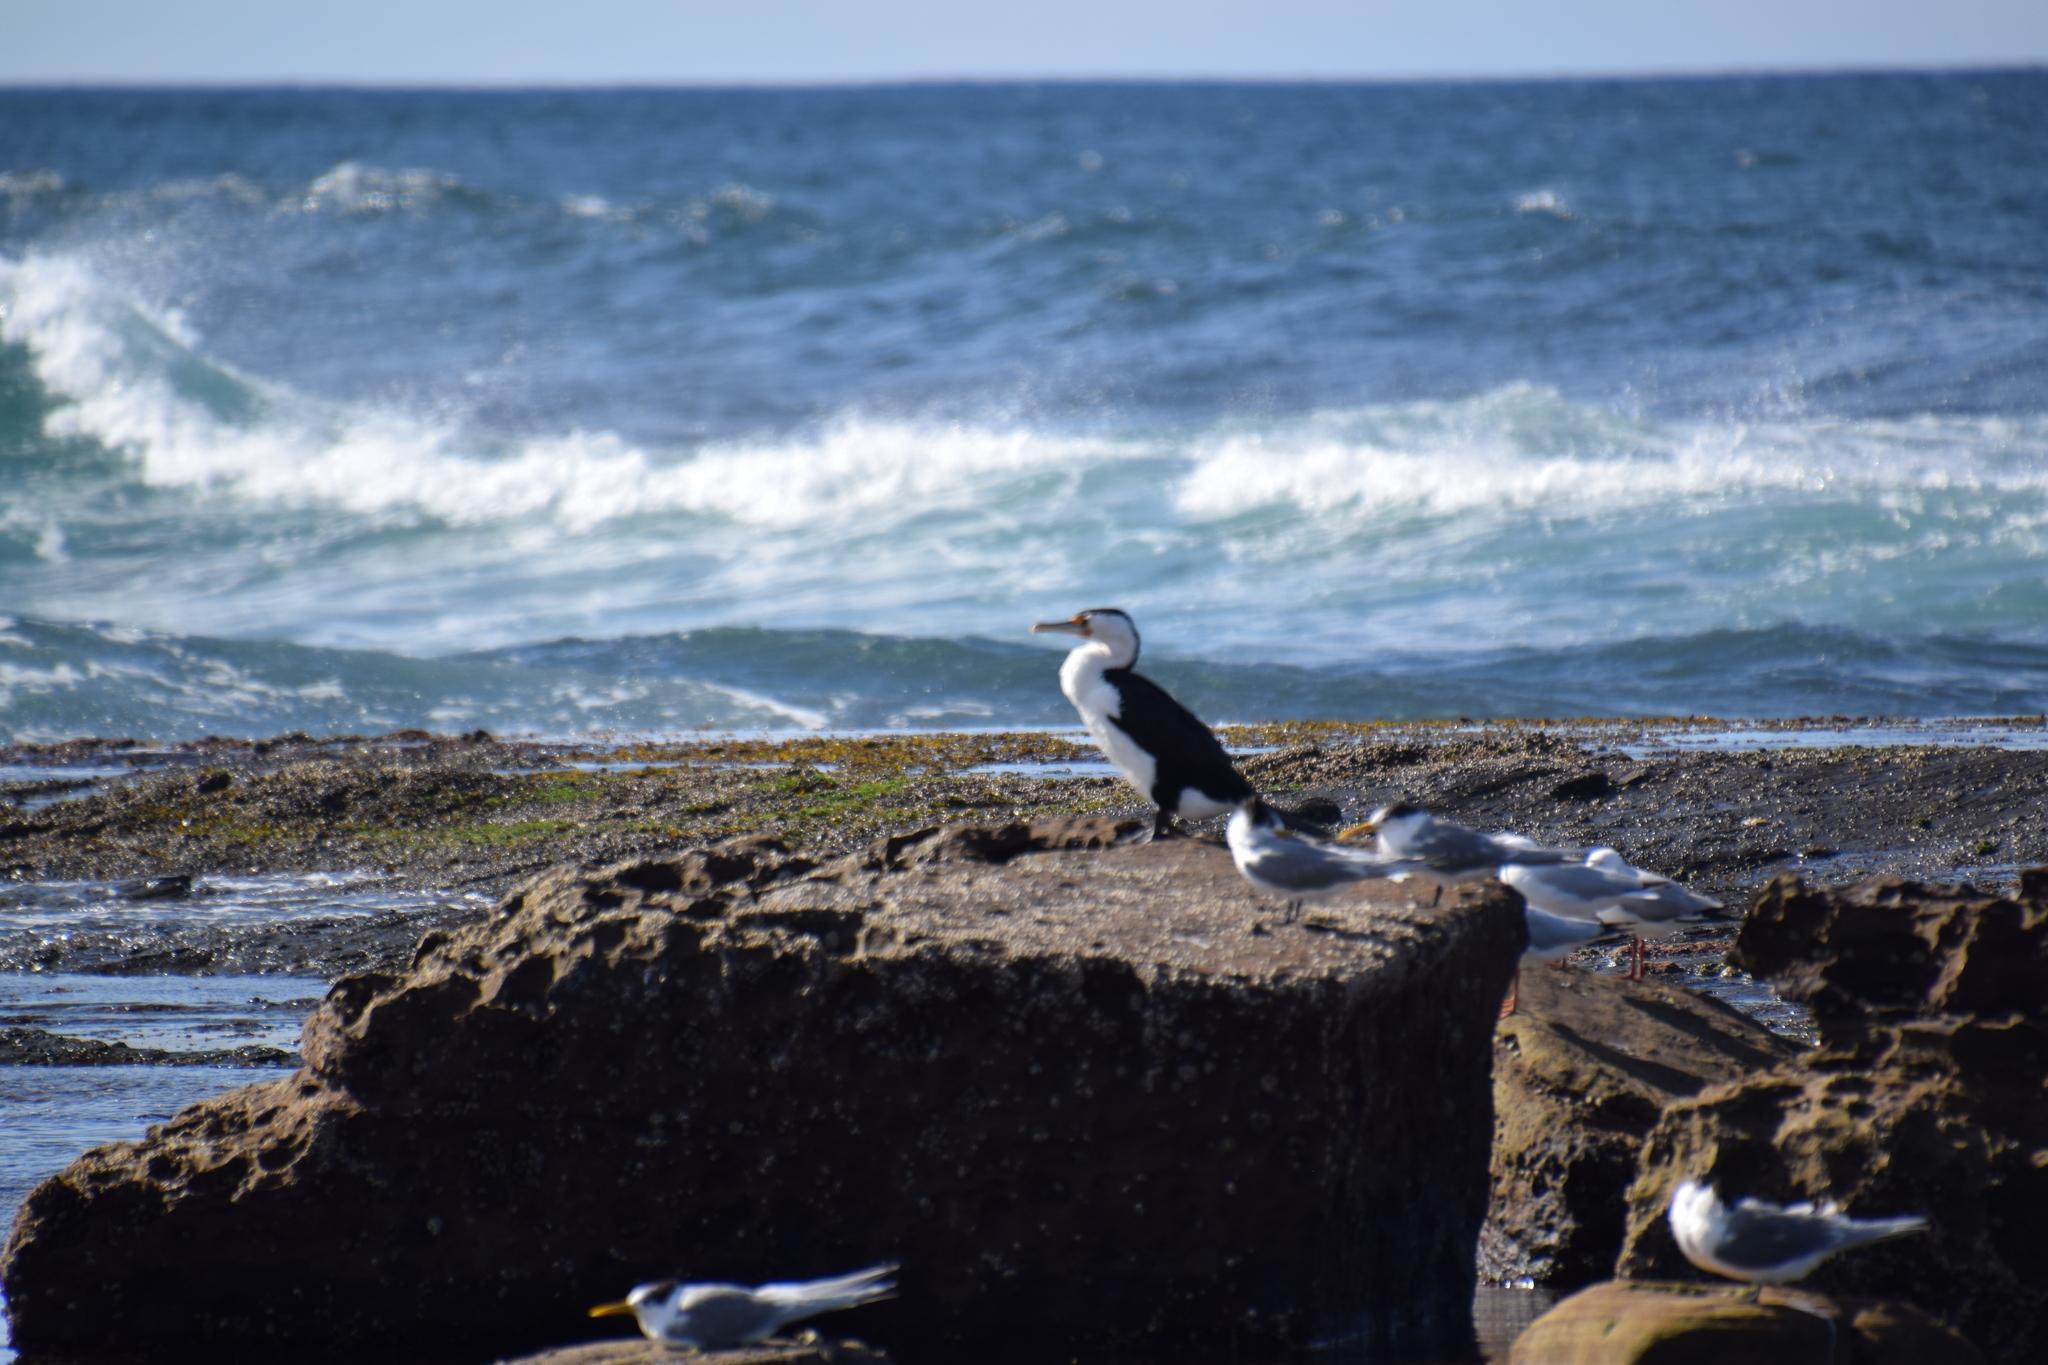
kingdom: Animalia
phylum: Chordata
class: Aves
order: Suliformes
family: Phalacrocoracidae
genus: Phalacrocorax
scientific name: Phalacrocorax varius
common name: Pied cormorant
